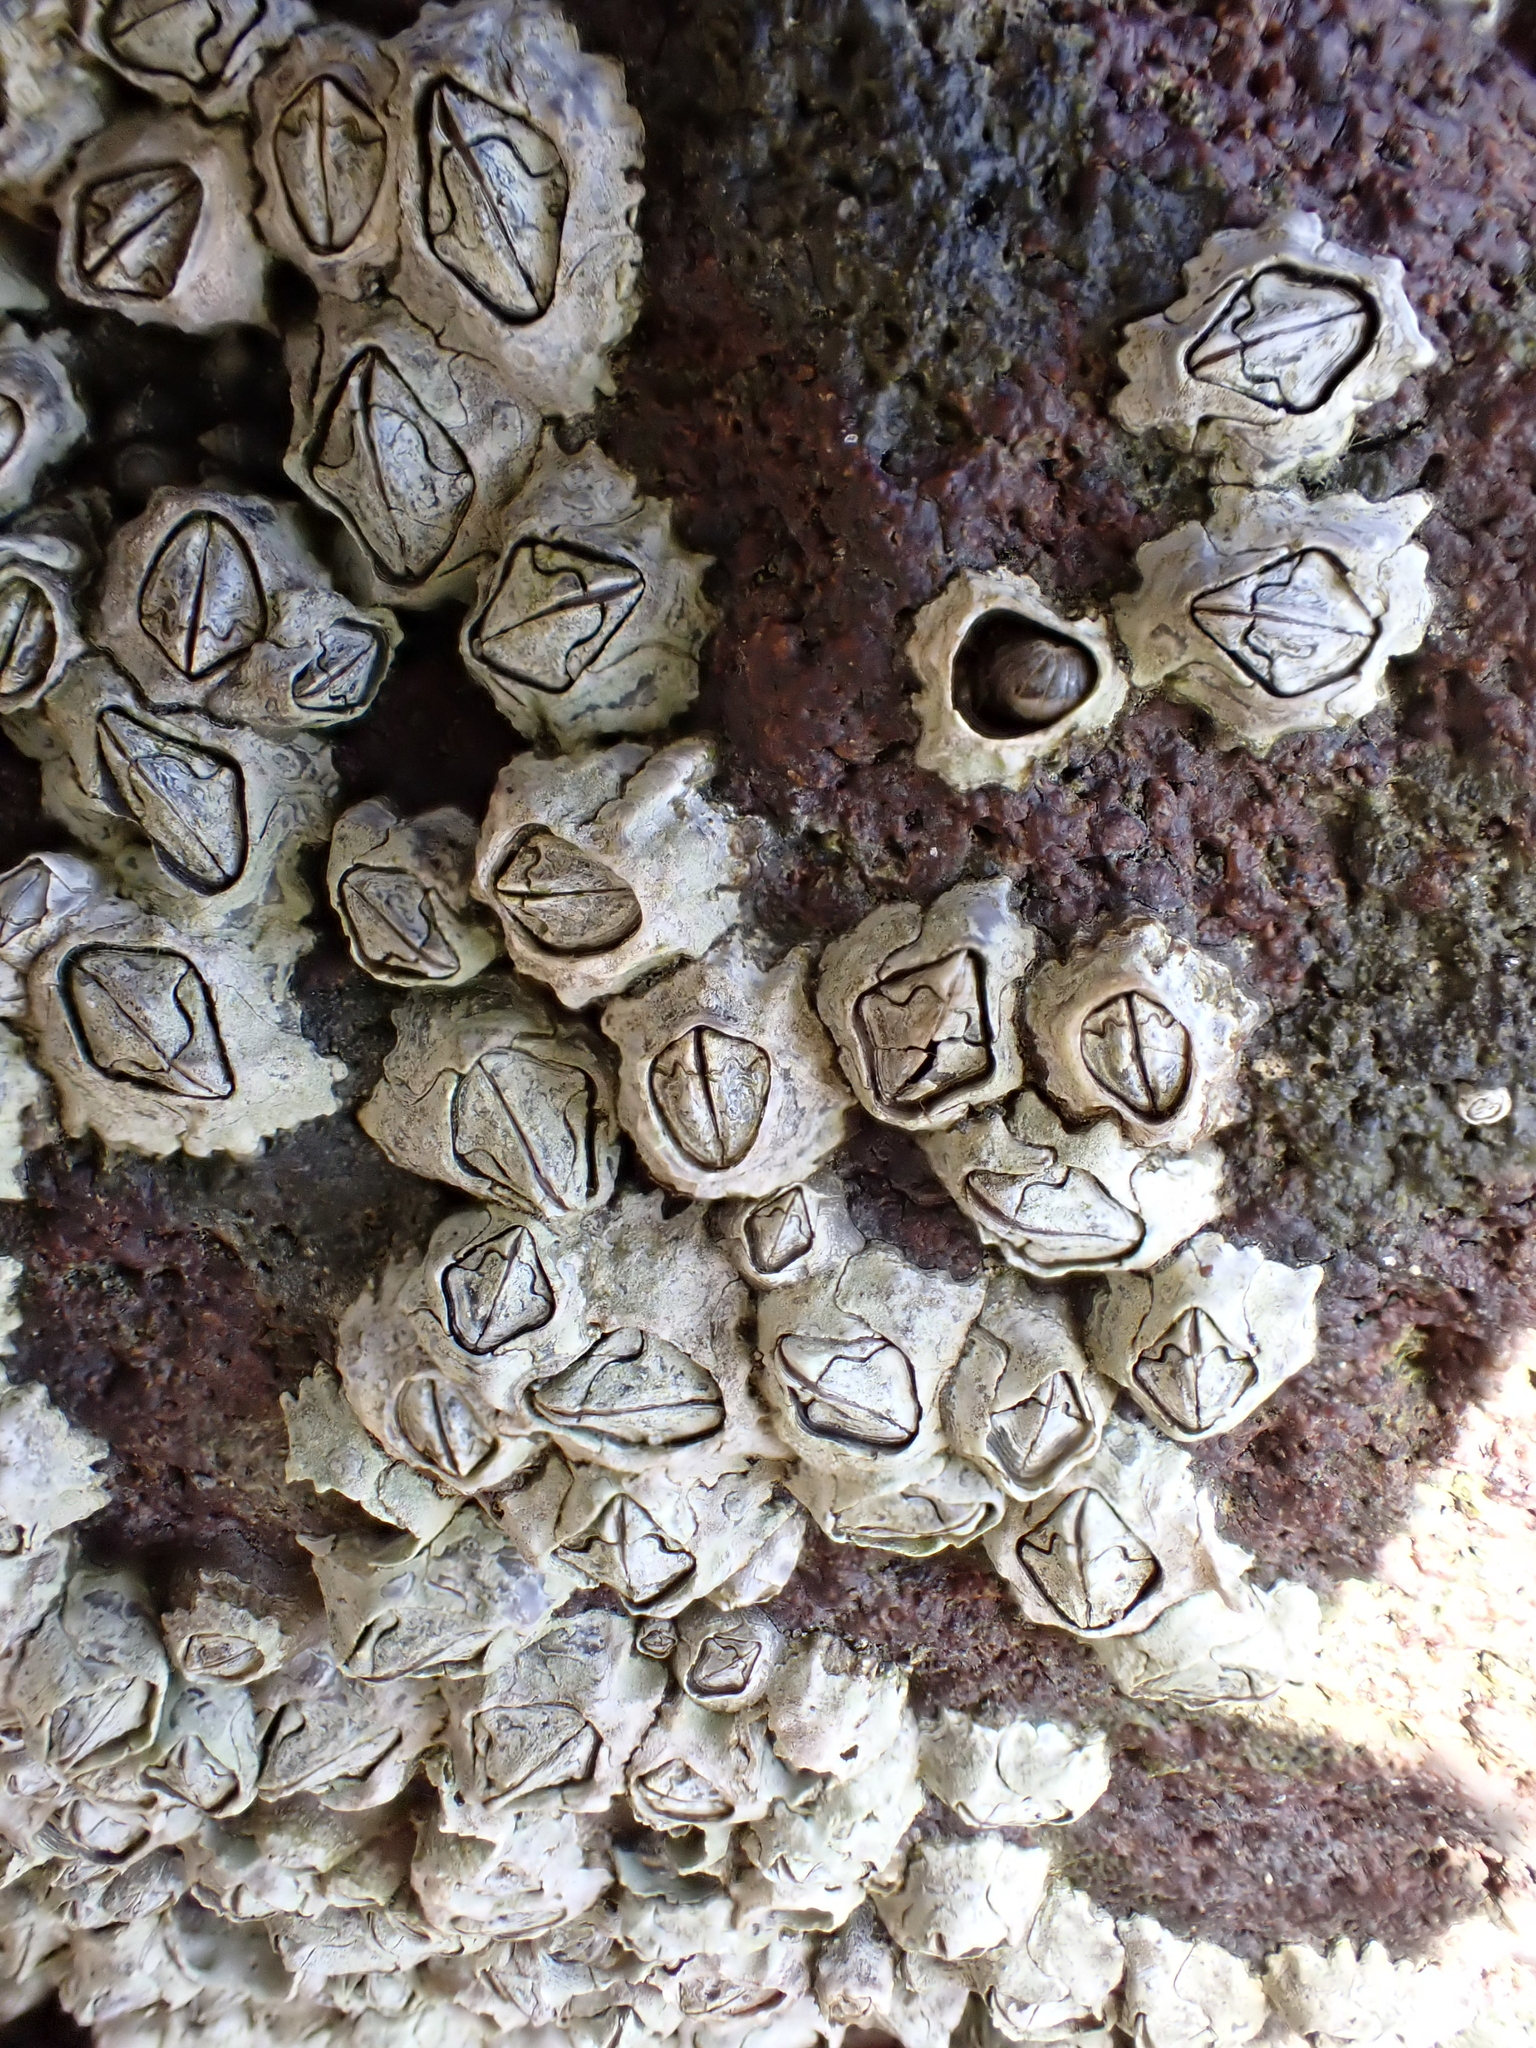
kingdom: Animalia
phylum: Arthropoda
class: Maxillopoda
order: Sessilia
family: Chthamalidae
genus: Chamaesipho
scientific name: Chamaesipho columna
